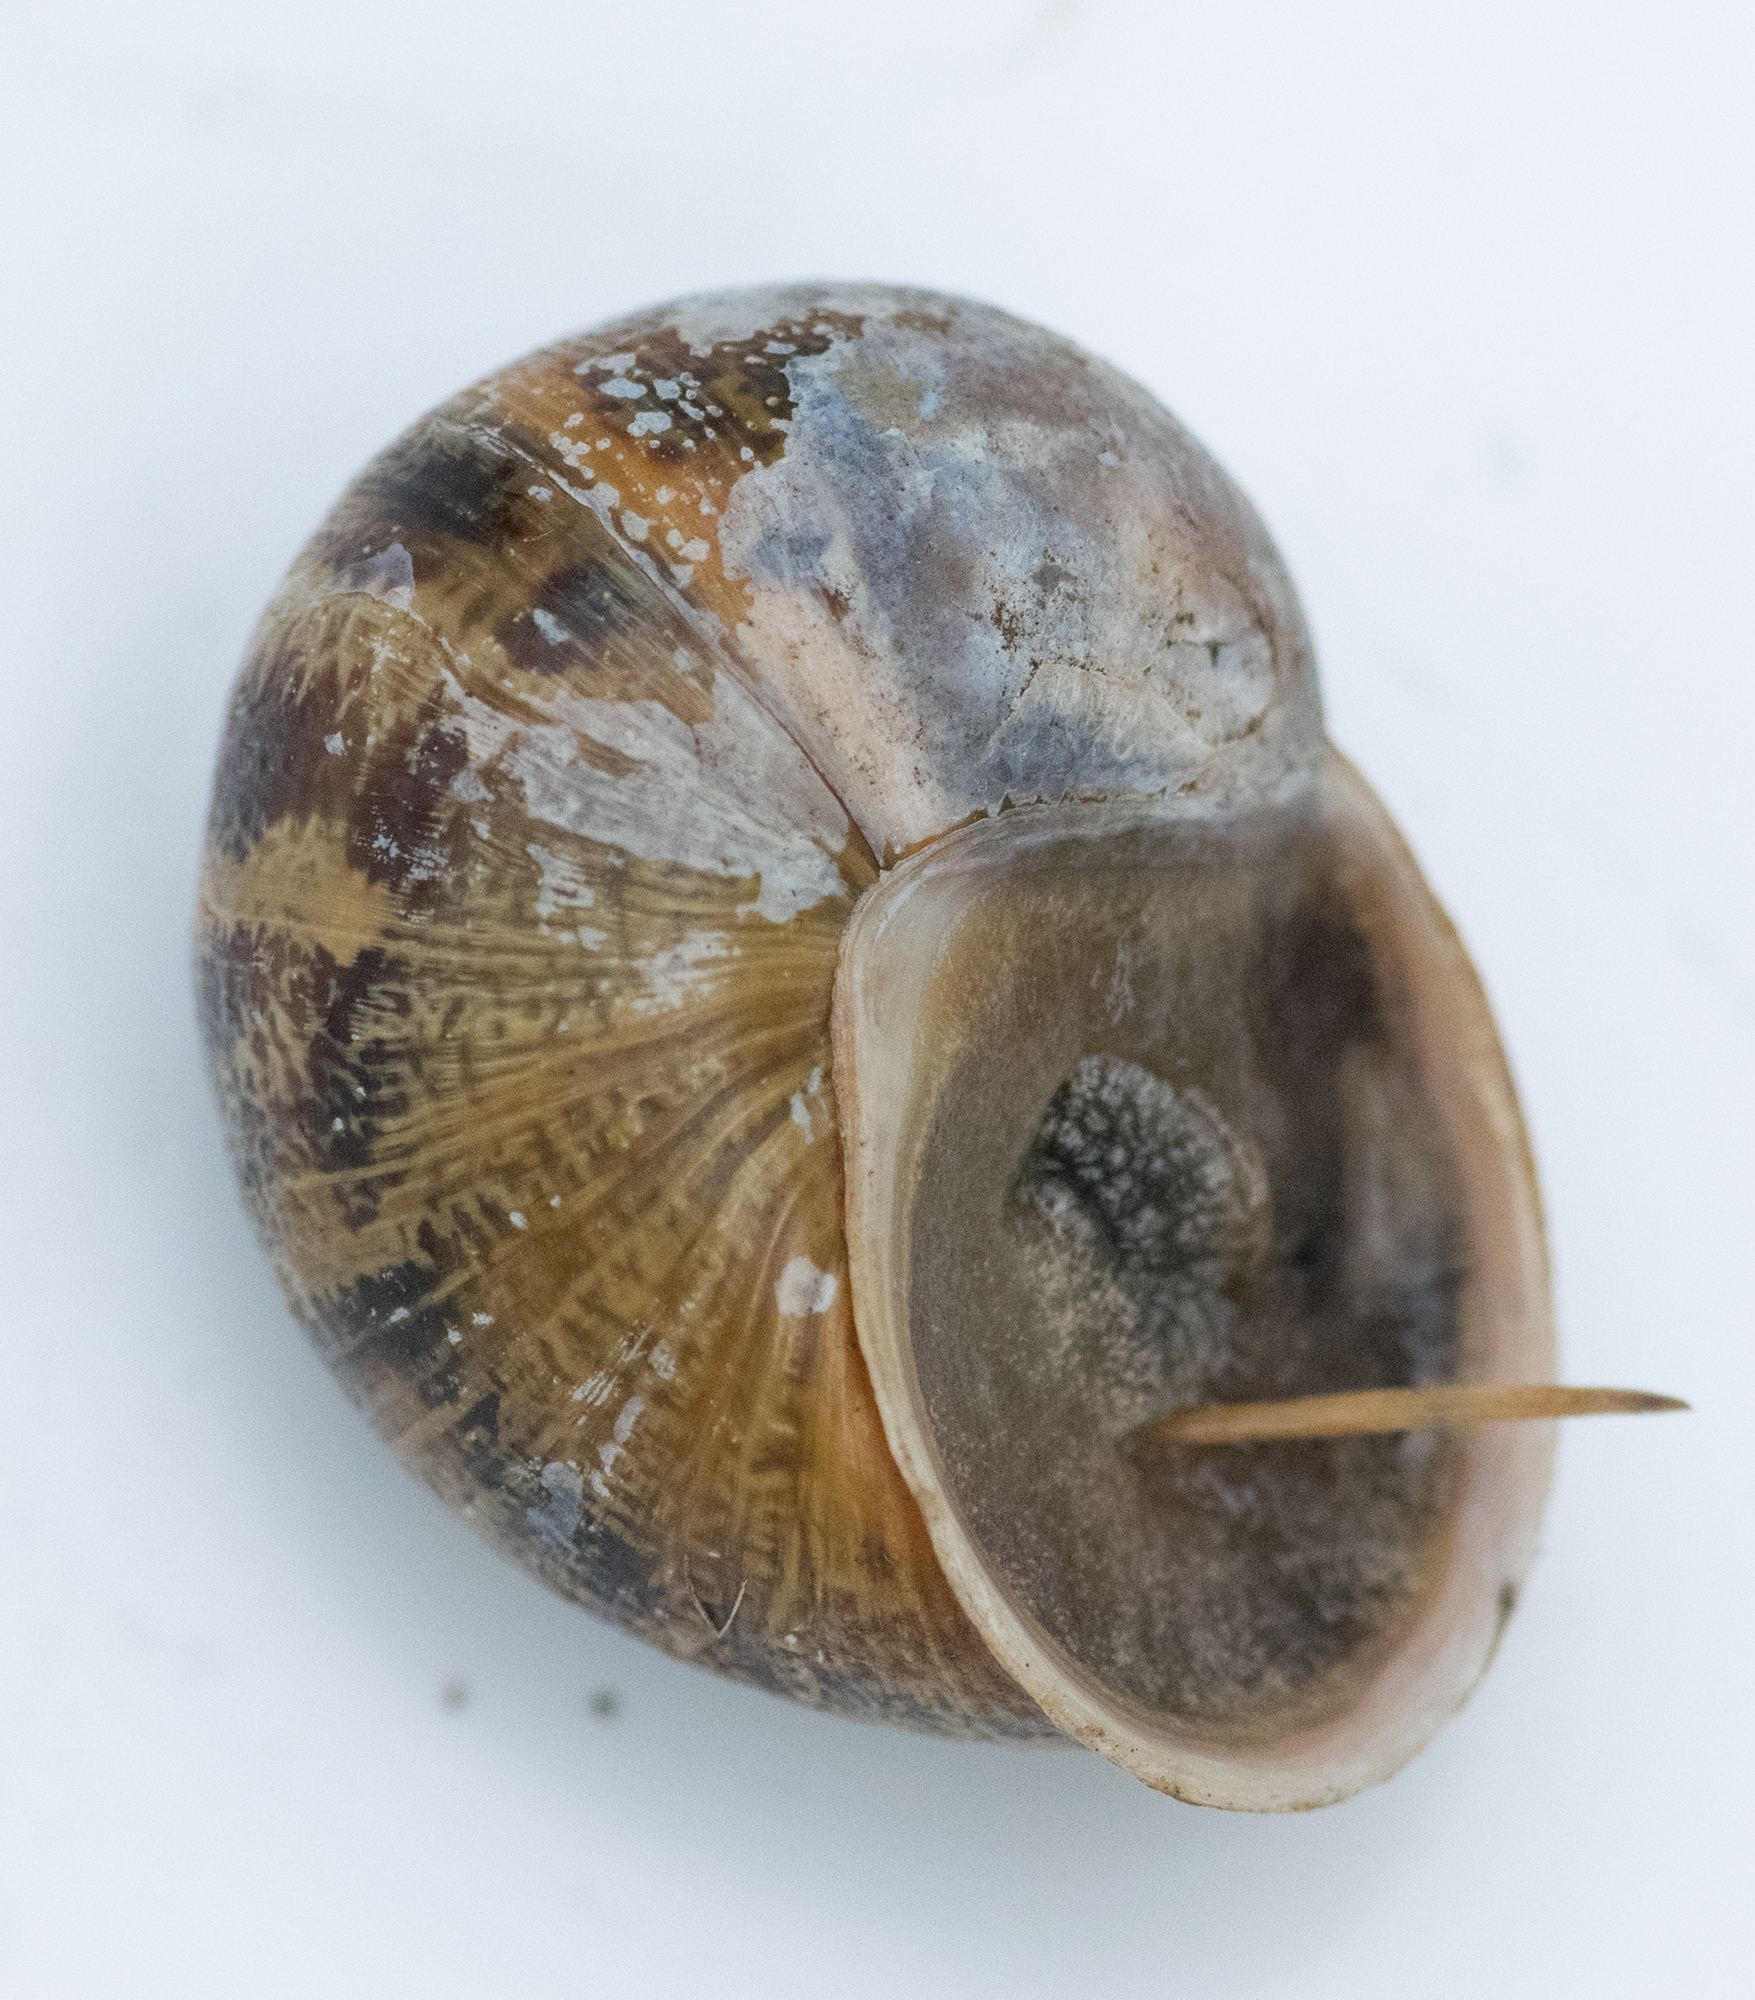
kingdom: Animalia
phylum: Mollusca
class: Gastropoda
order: Stylommatophora
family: Helicidae
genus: Cornu
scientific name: Cornu aspersum
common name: Brown garden snail
